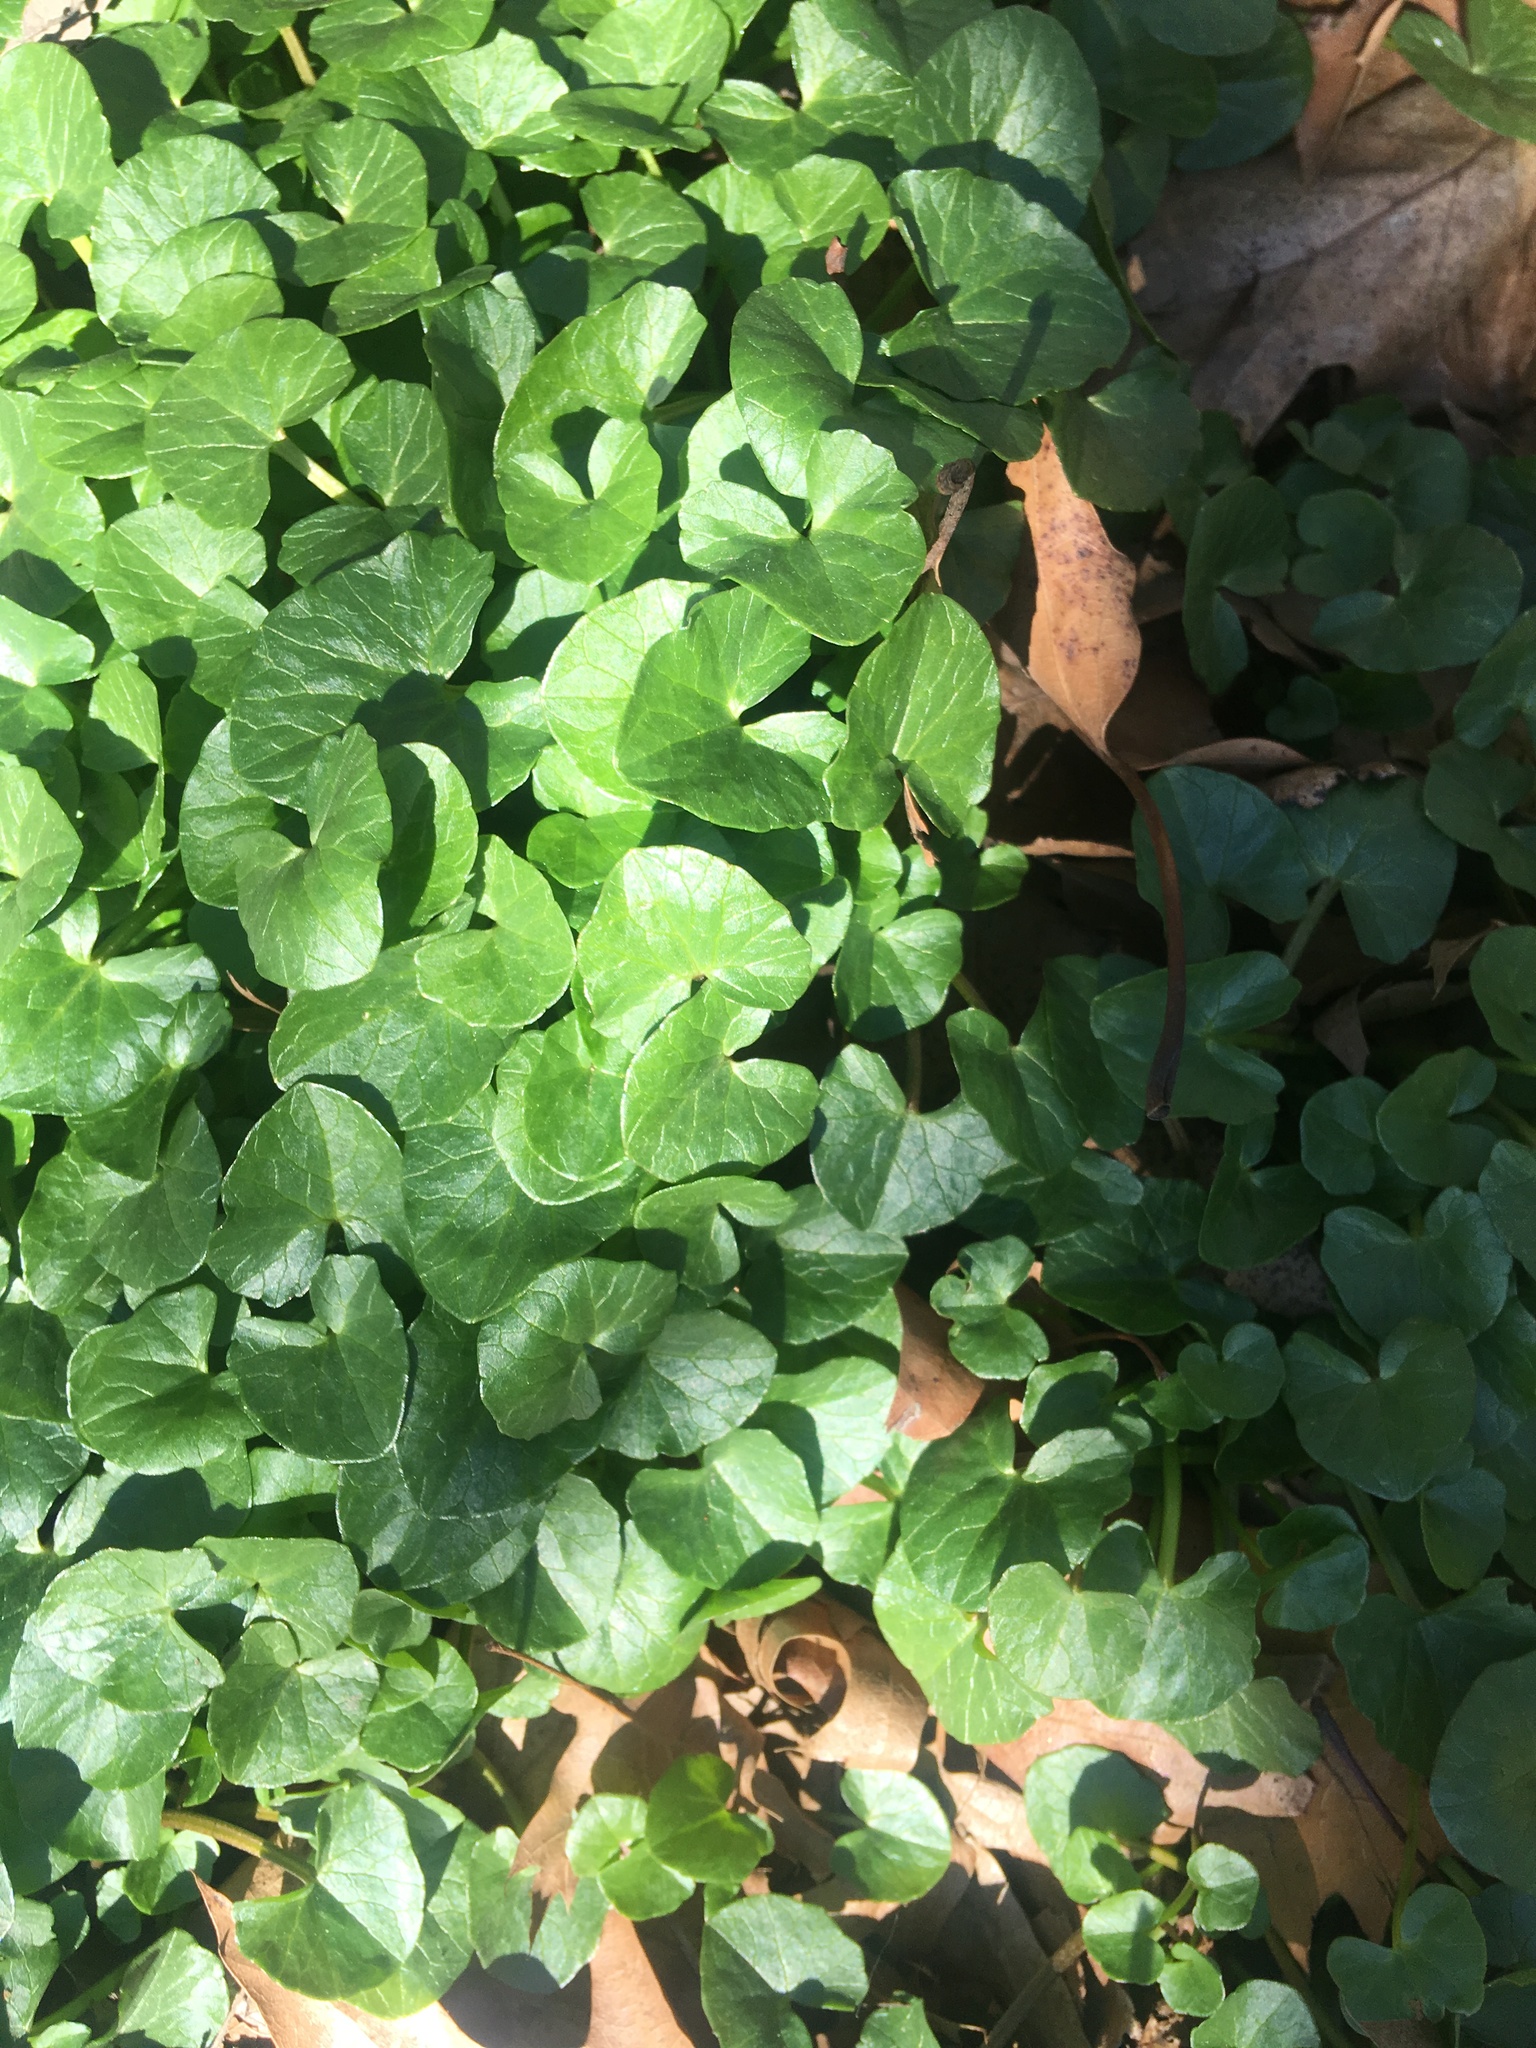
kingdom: Plantae
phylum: Tracheophyta
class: Magnoliopsida
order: Ranunculales
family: Ranunculaceae
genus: Ficaria
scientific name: Ficaria verna
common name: Lesser celandine
